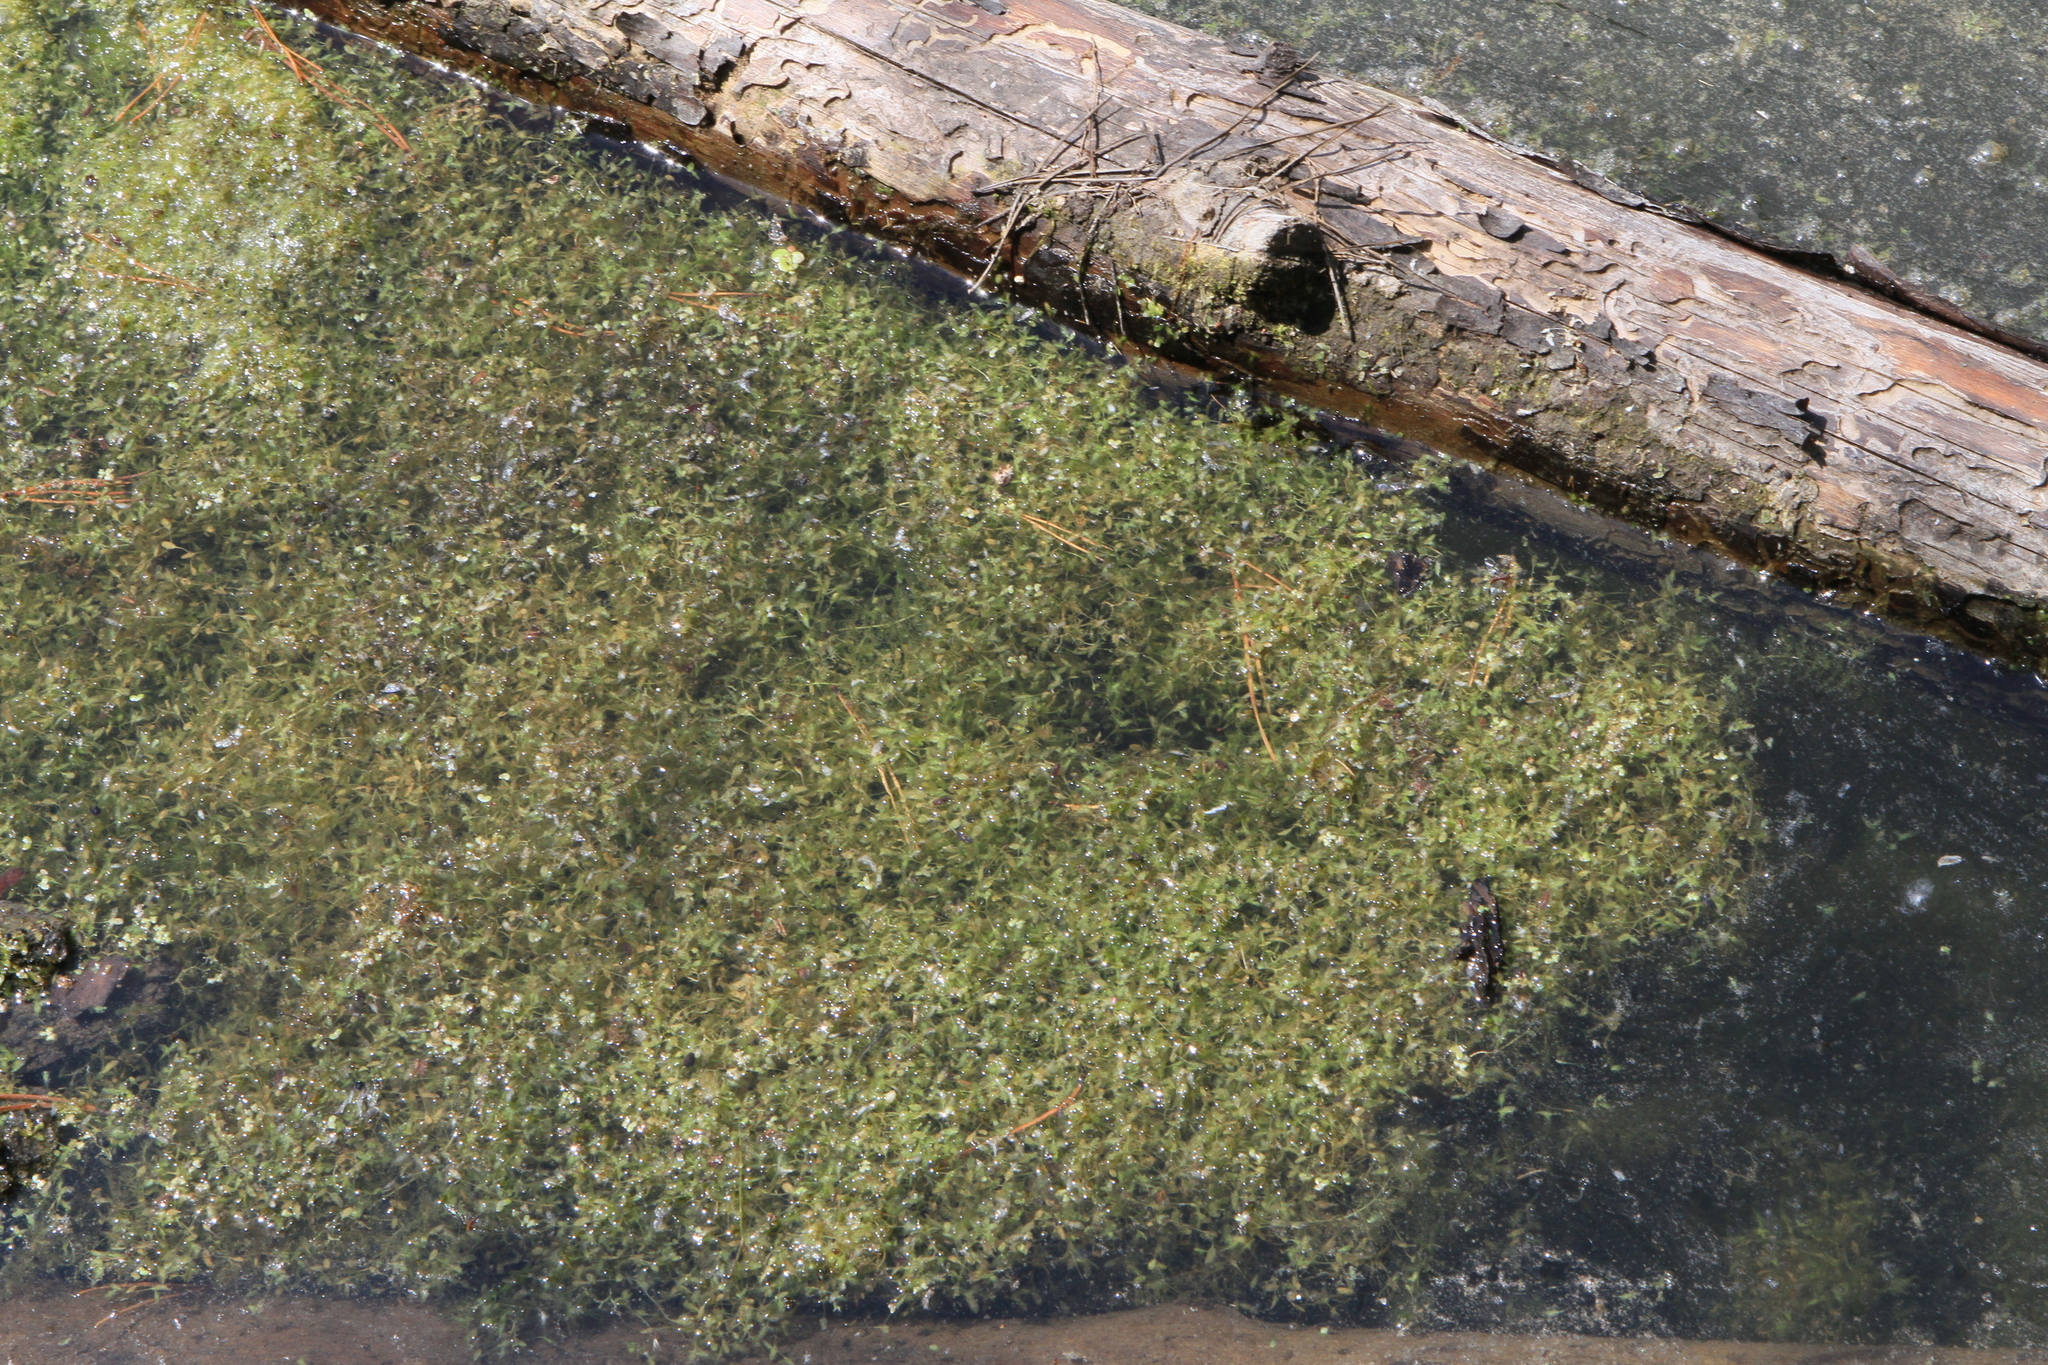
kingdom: Plantae
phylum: Tracheophyta
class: Liliopsida
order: Alismatales
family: Araceae
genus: Lemna
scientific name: Lemna trisulca
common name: Ivy-leaved duckweed
